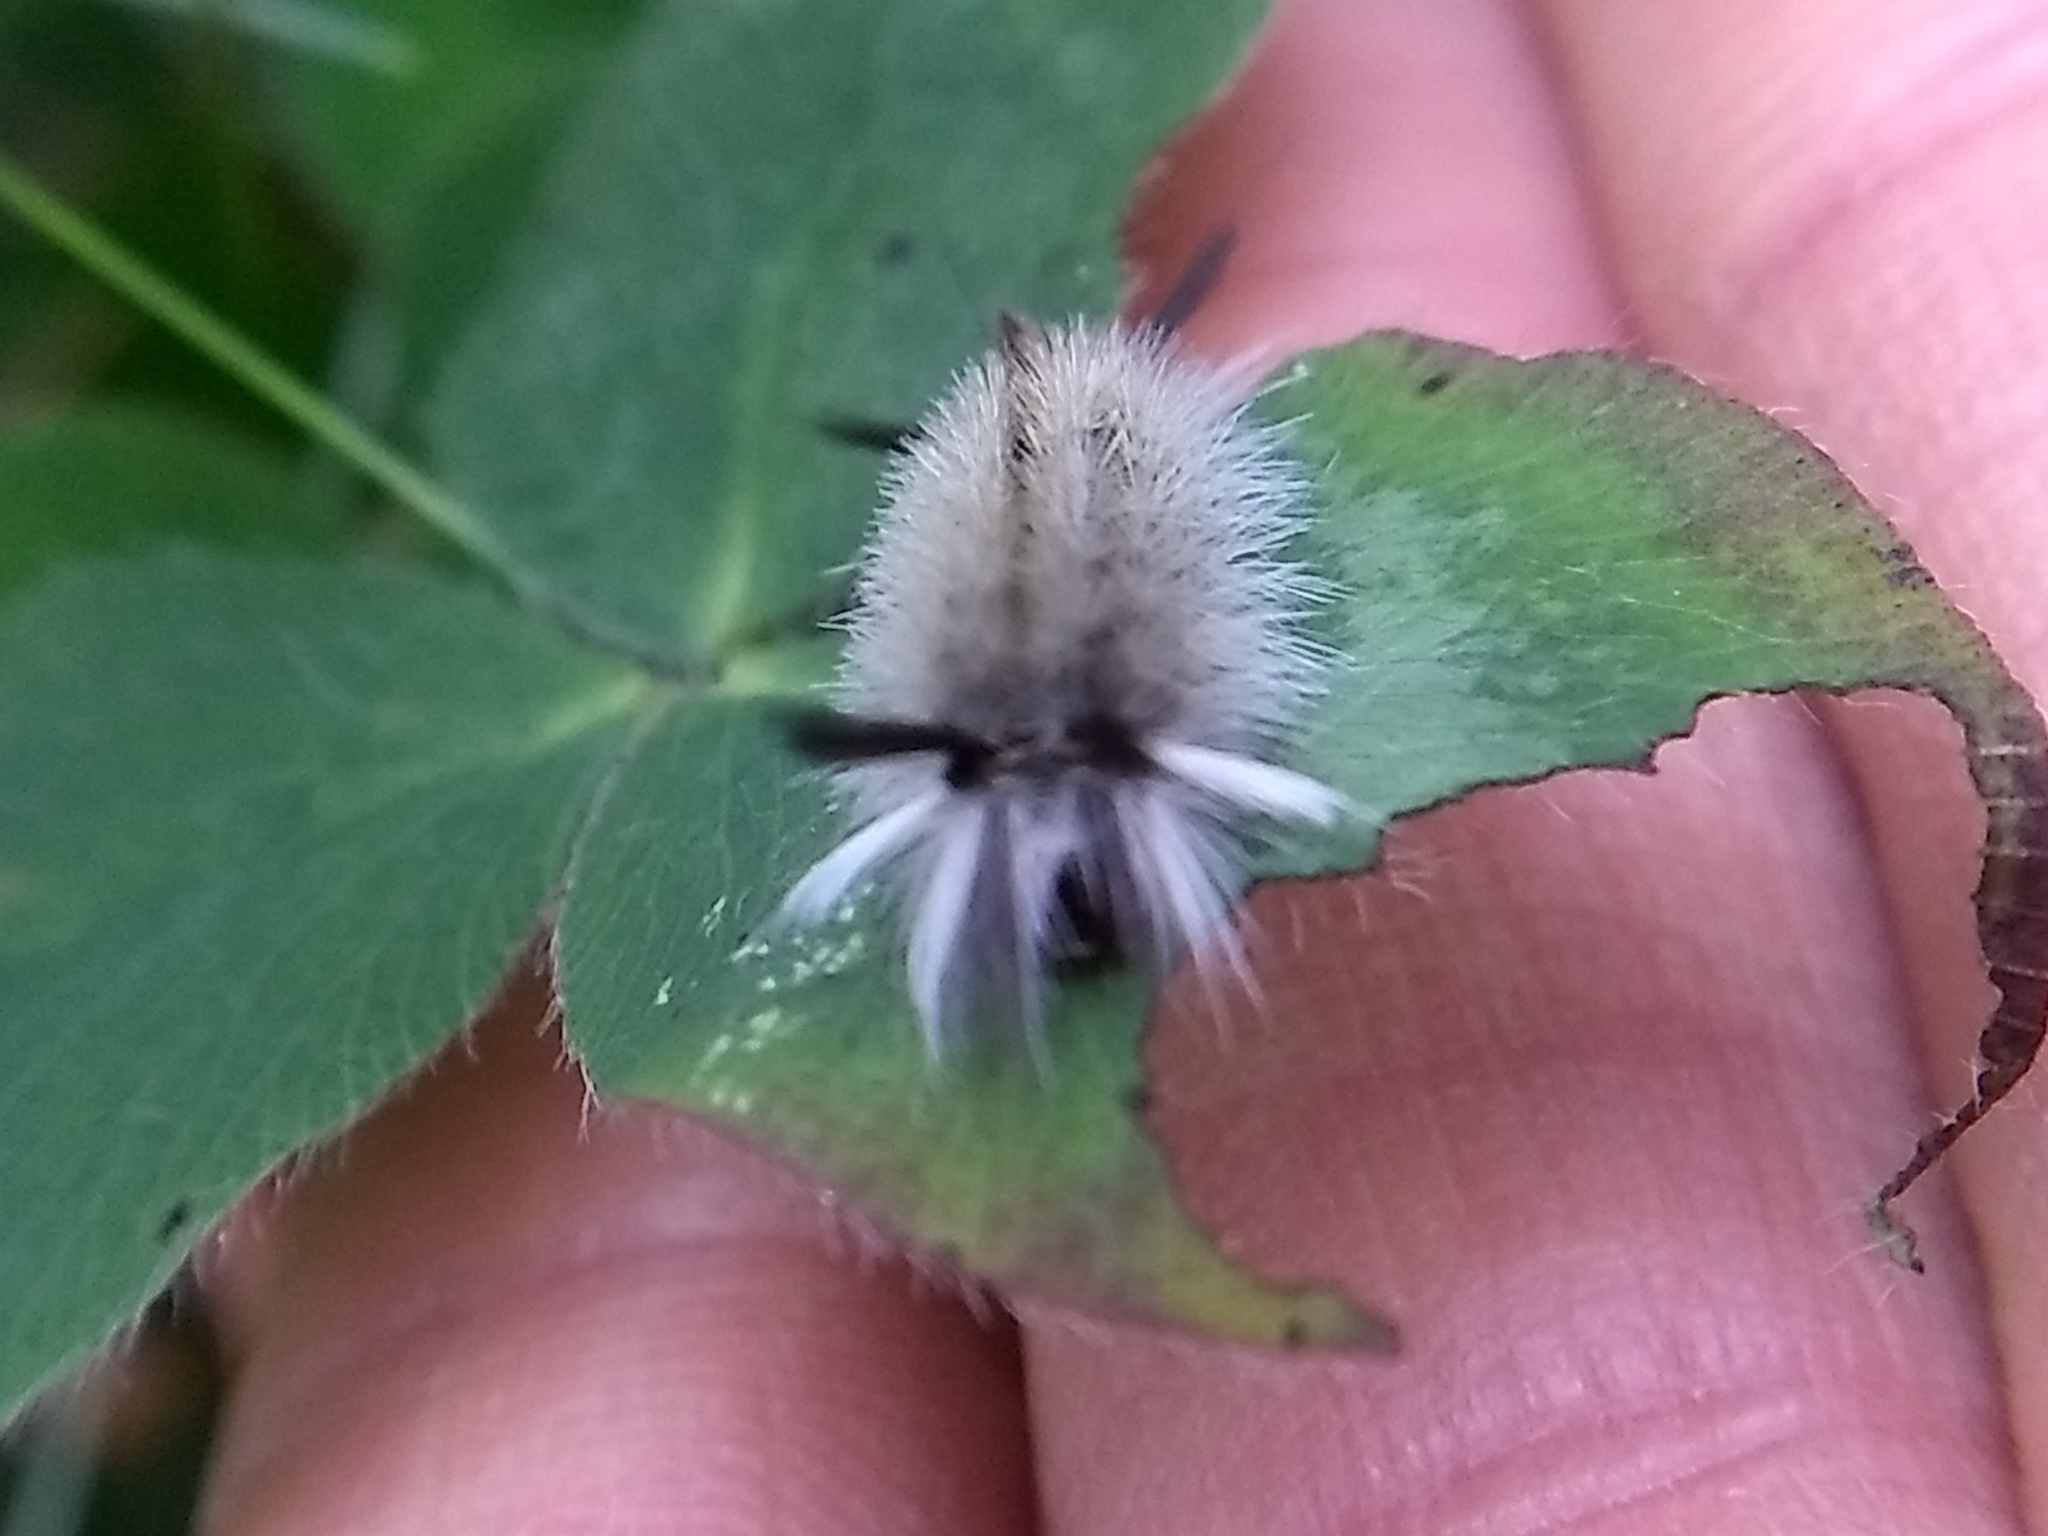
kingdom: Animalia
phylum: Arthropoda
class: Insecta
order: Lepidoptera
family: Erebidae
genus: Halysidota
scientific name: Halysidota tessellaris
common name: Banded tussock moth
